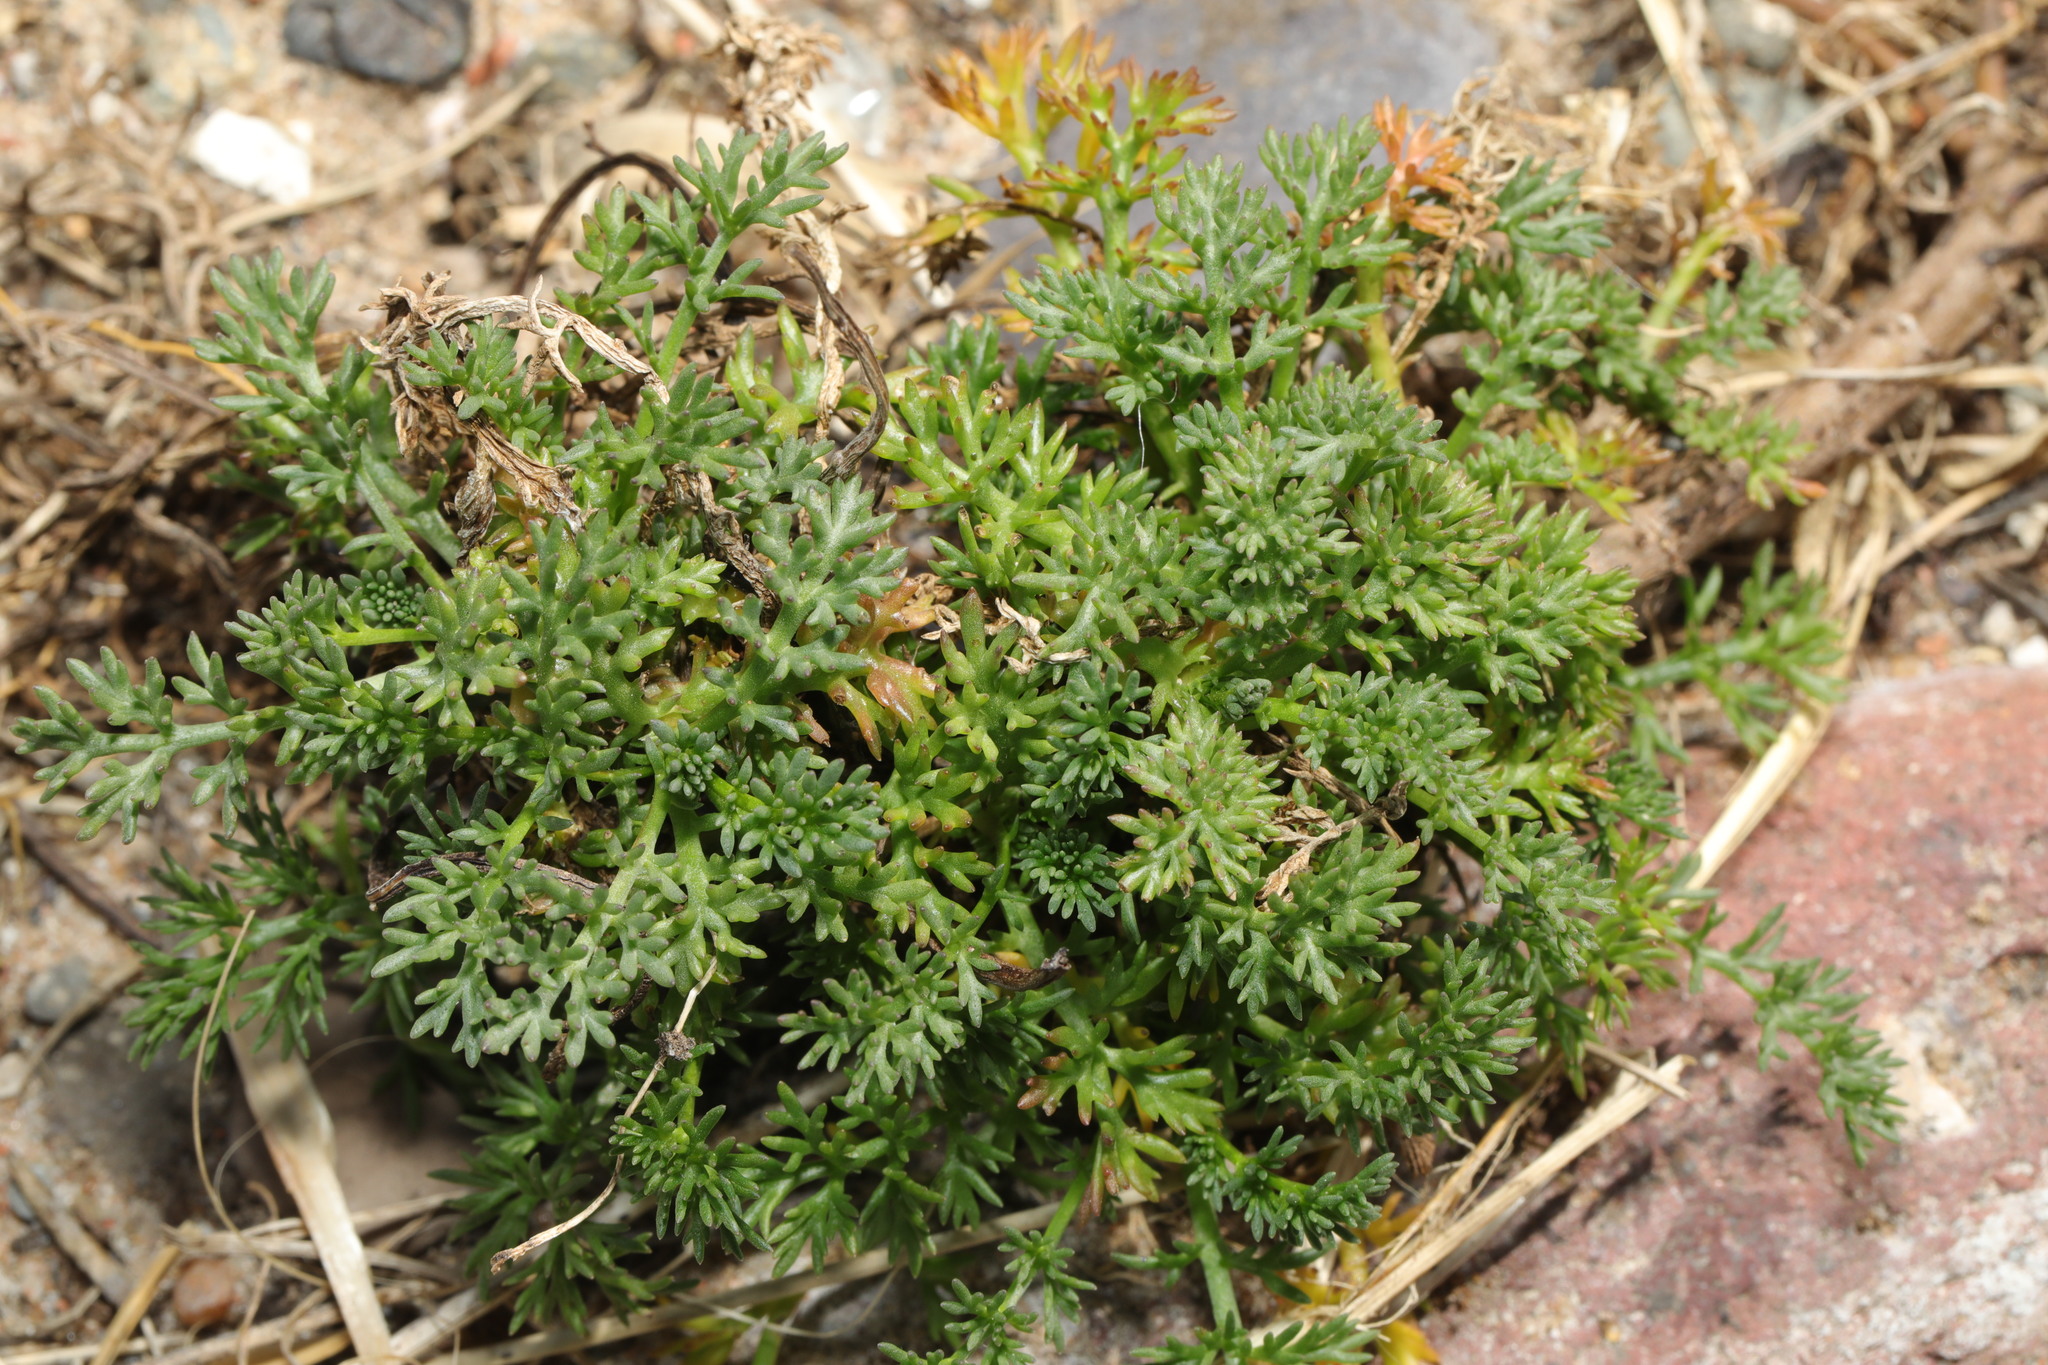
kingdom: Plantae
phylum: Tracheophyta
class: Magnoliopsida
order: Asterales
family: Asteraceae
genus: Matricaria
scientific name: Matricaria discoidea
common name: Disc mayweed
